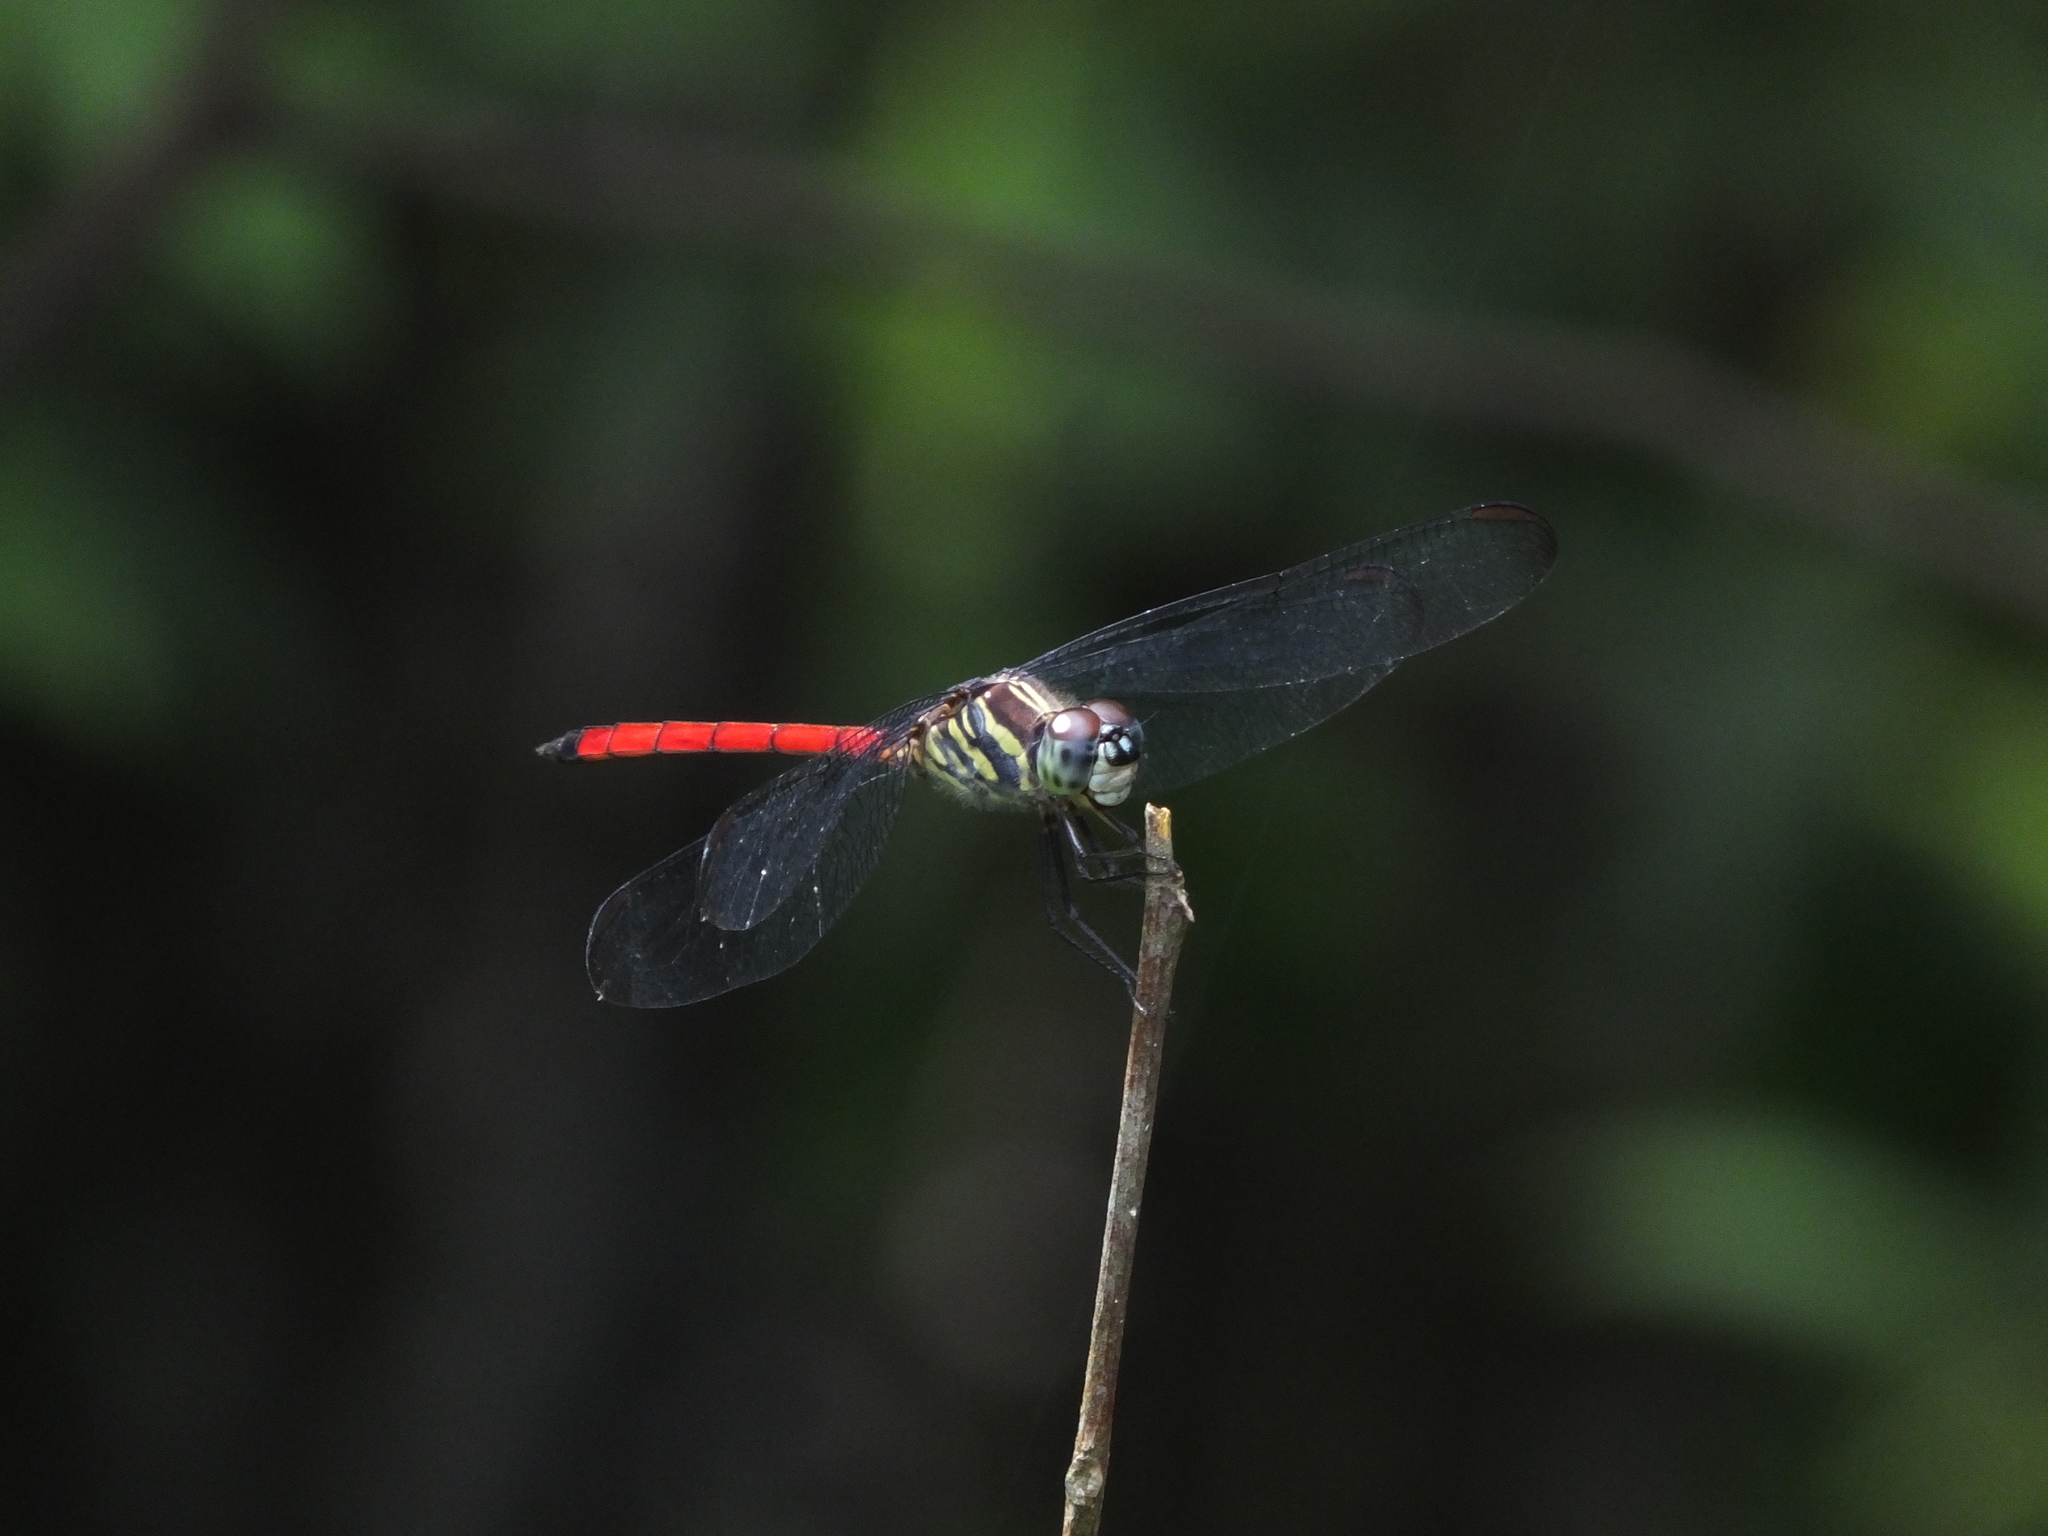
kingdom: Animalia
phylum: Arthropoda
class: Insecta
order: Odonata
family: Libellulidae
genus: Agrionoptera
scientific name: Agrionoptera insignis
